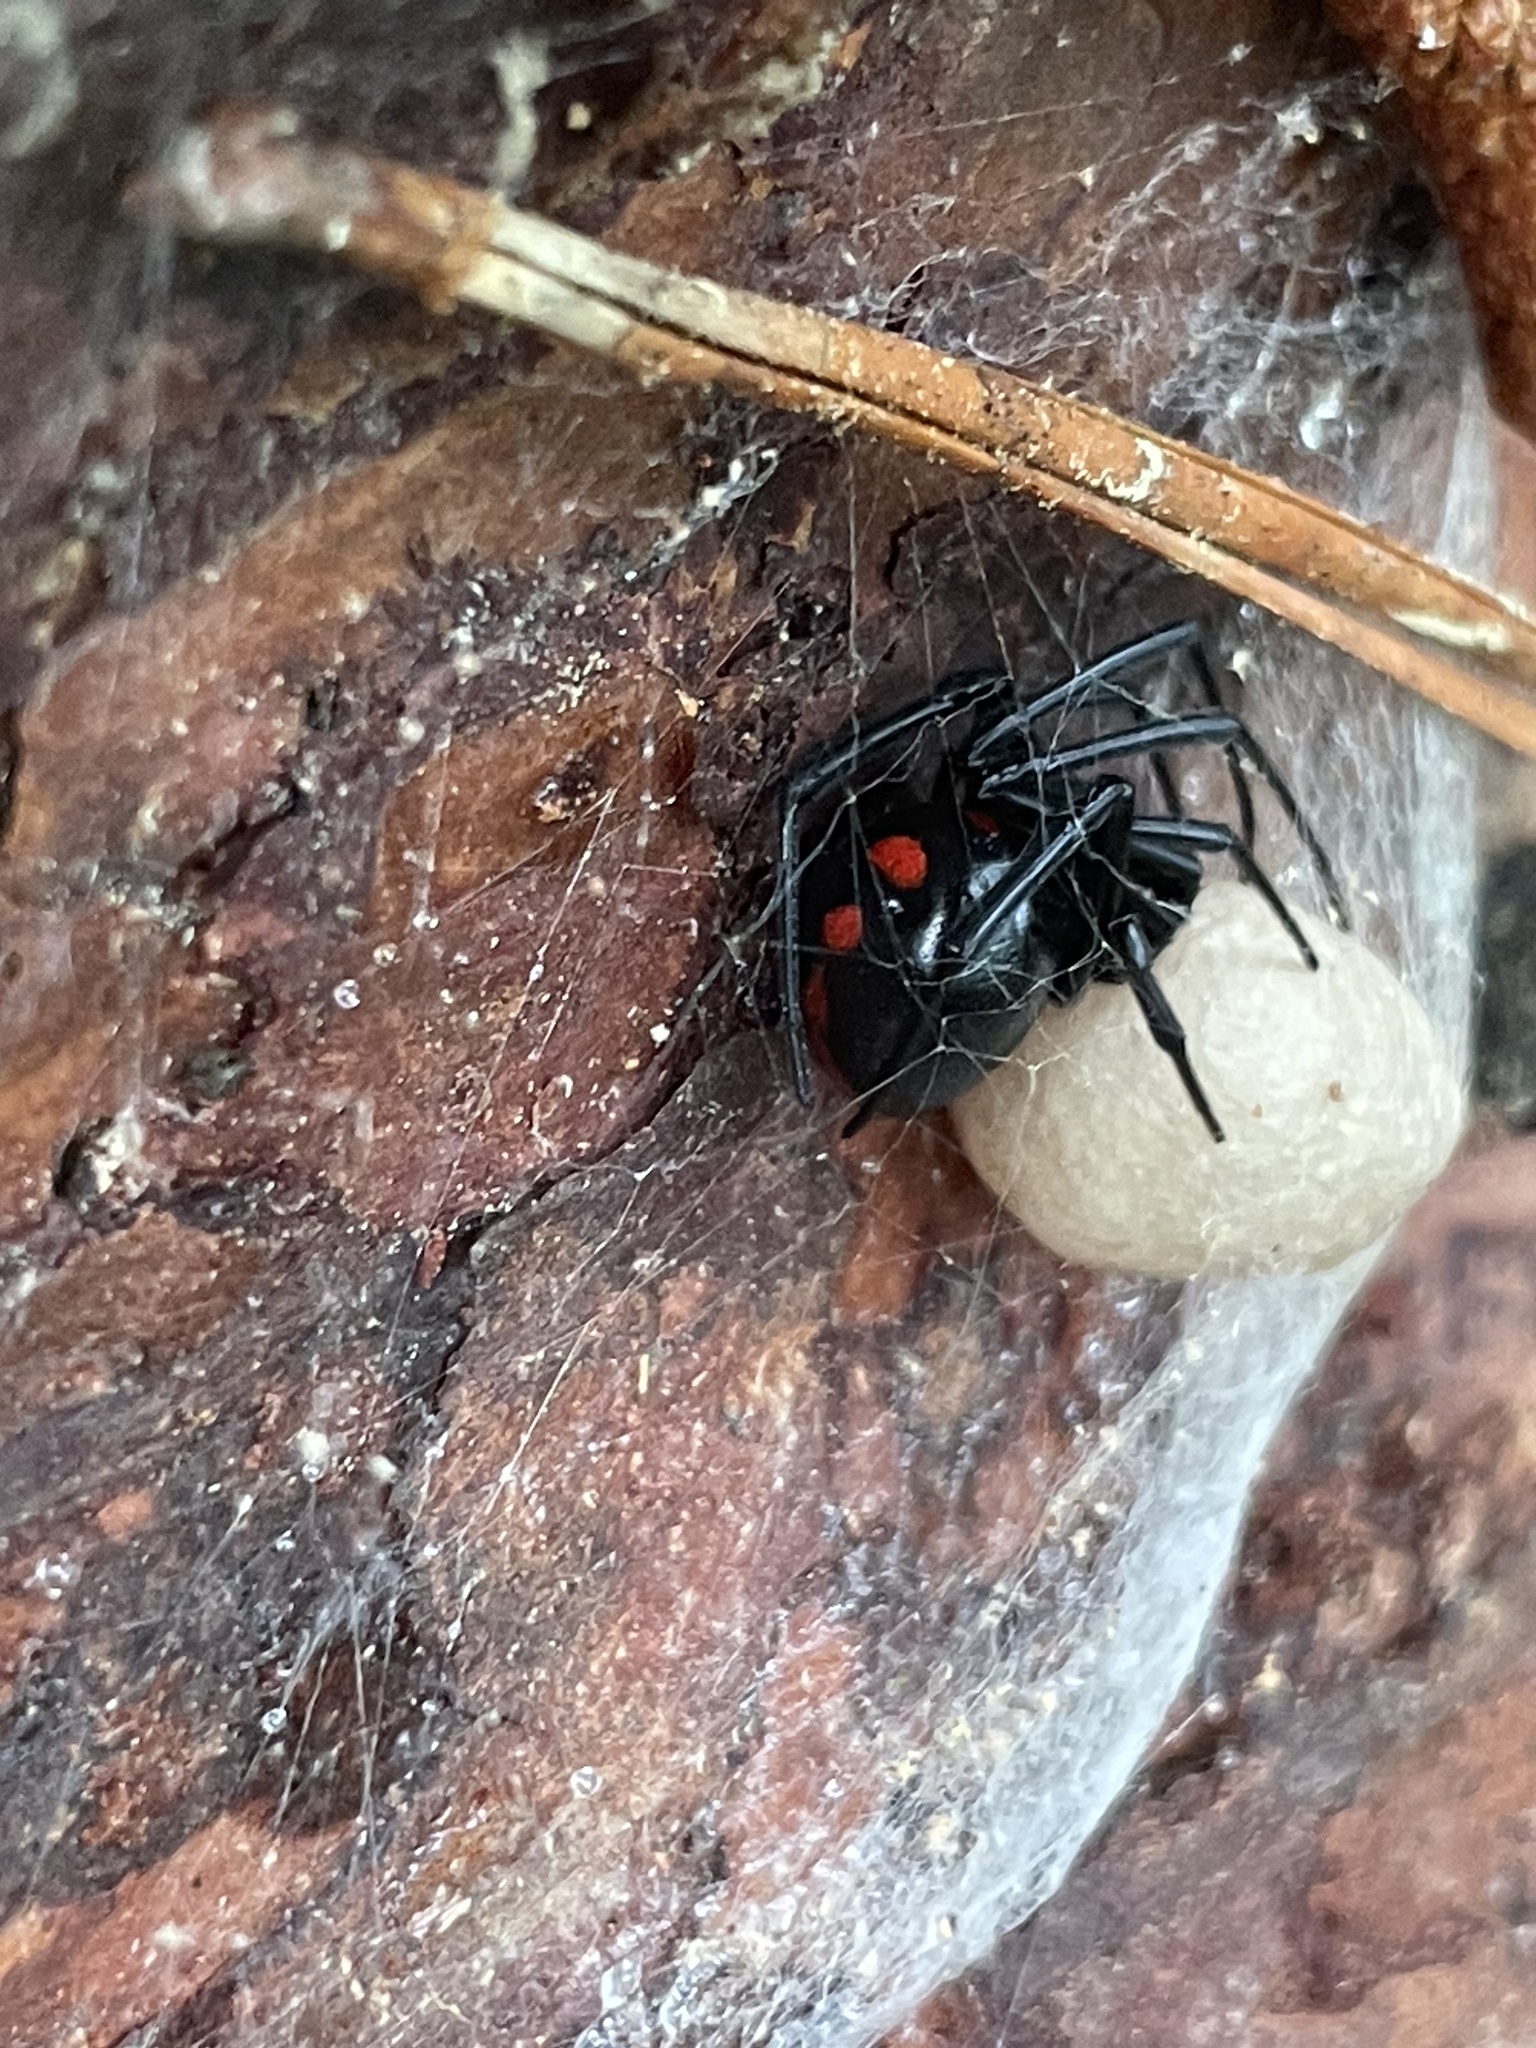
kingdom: Animalia
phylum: Arthropoda
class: Arachnida
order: Araneae
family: Theridiidae
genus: Latrodectus
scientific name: Latrodectus variolus
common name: Northern black widow
